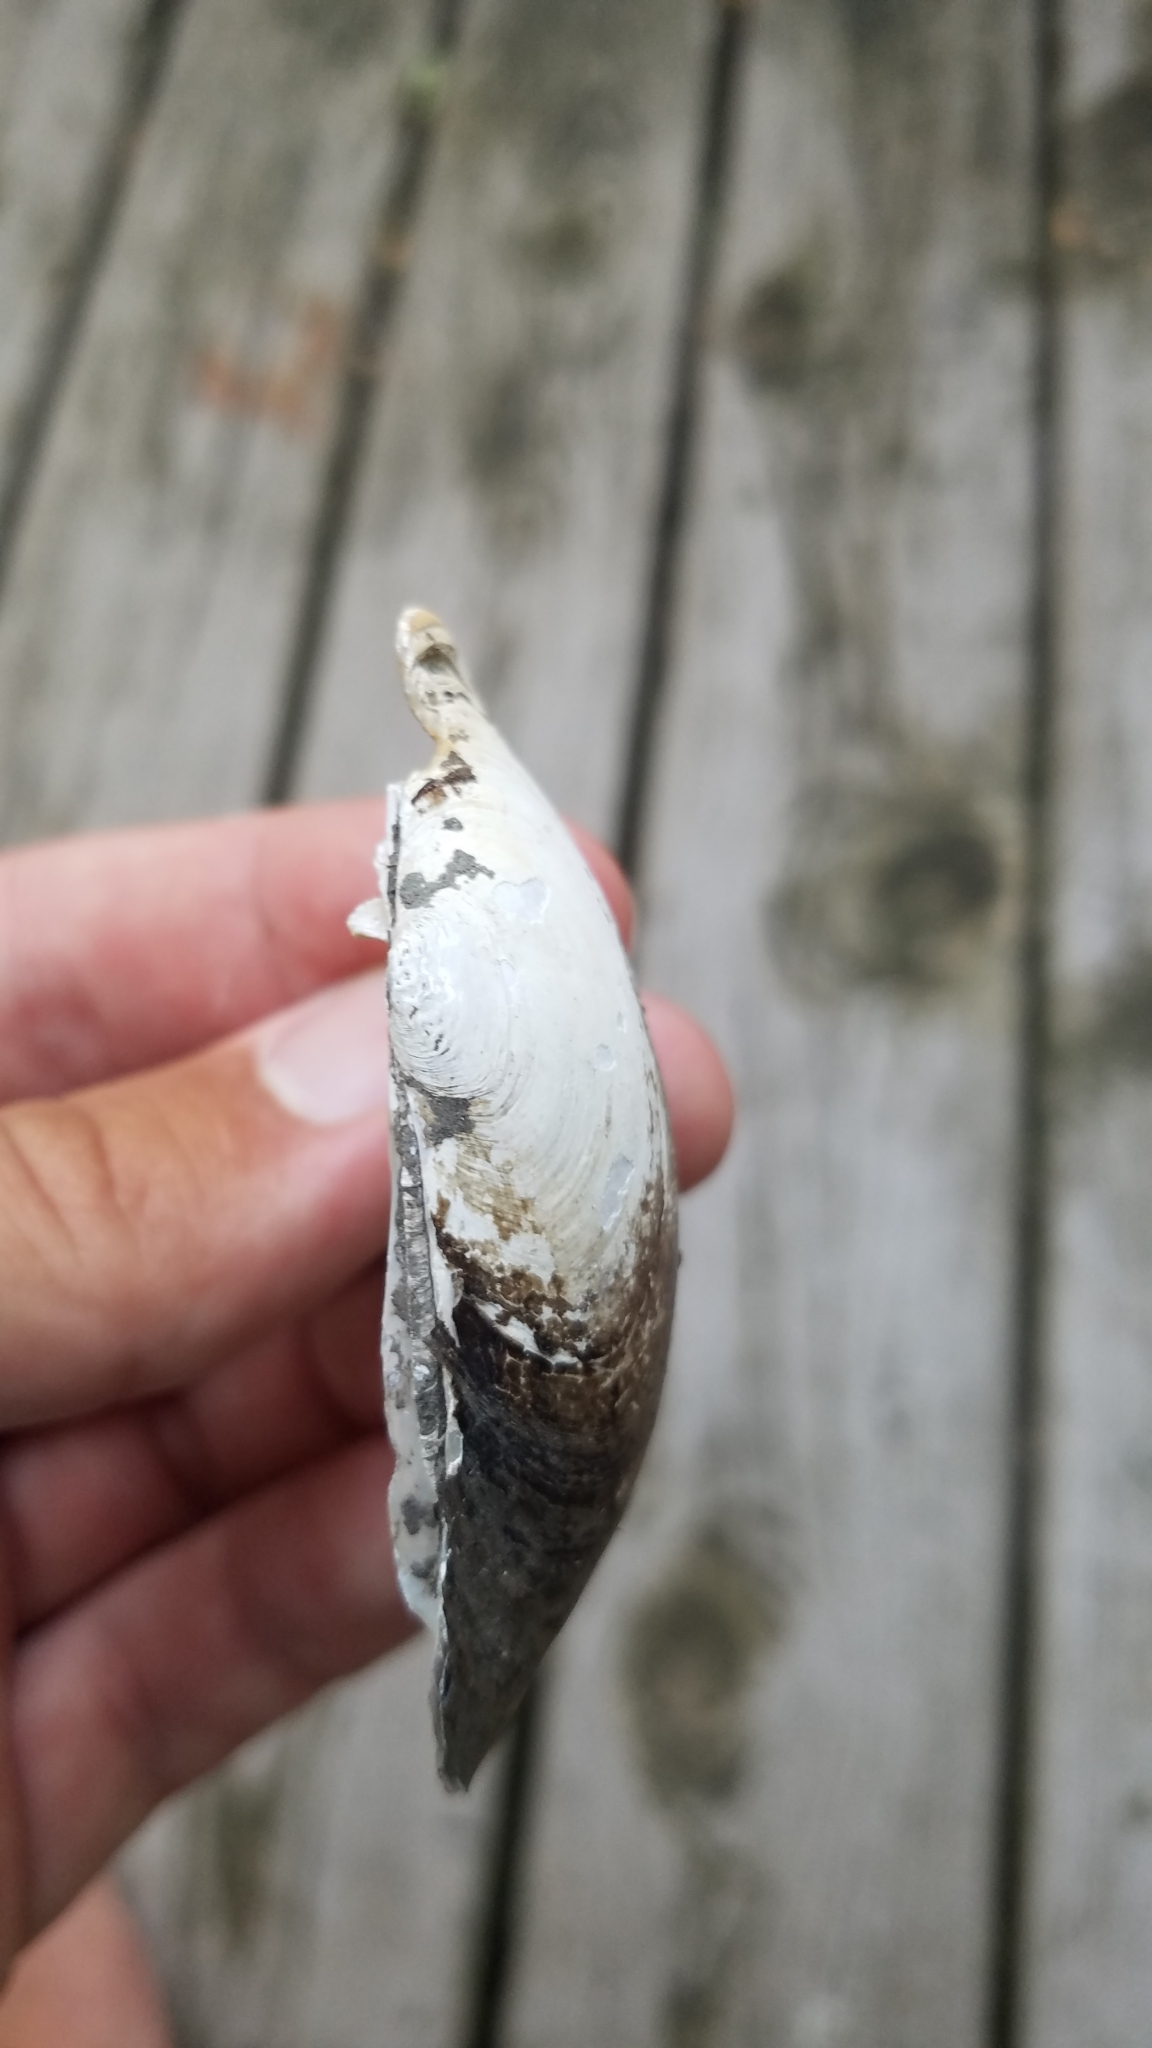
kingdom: Animalia
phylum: Mollusca
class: Bivalvia
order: Unionida
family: Unionidae
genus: Lampsilis
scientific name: Lampsilis siliquoidea
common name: Fatmucket
